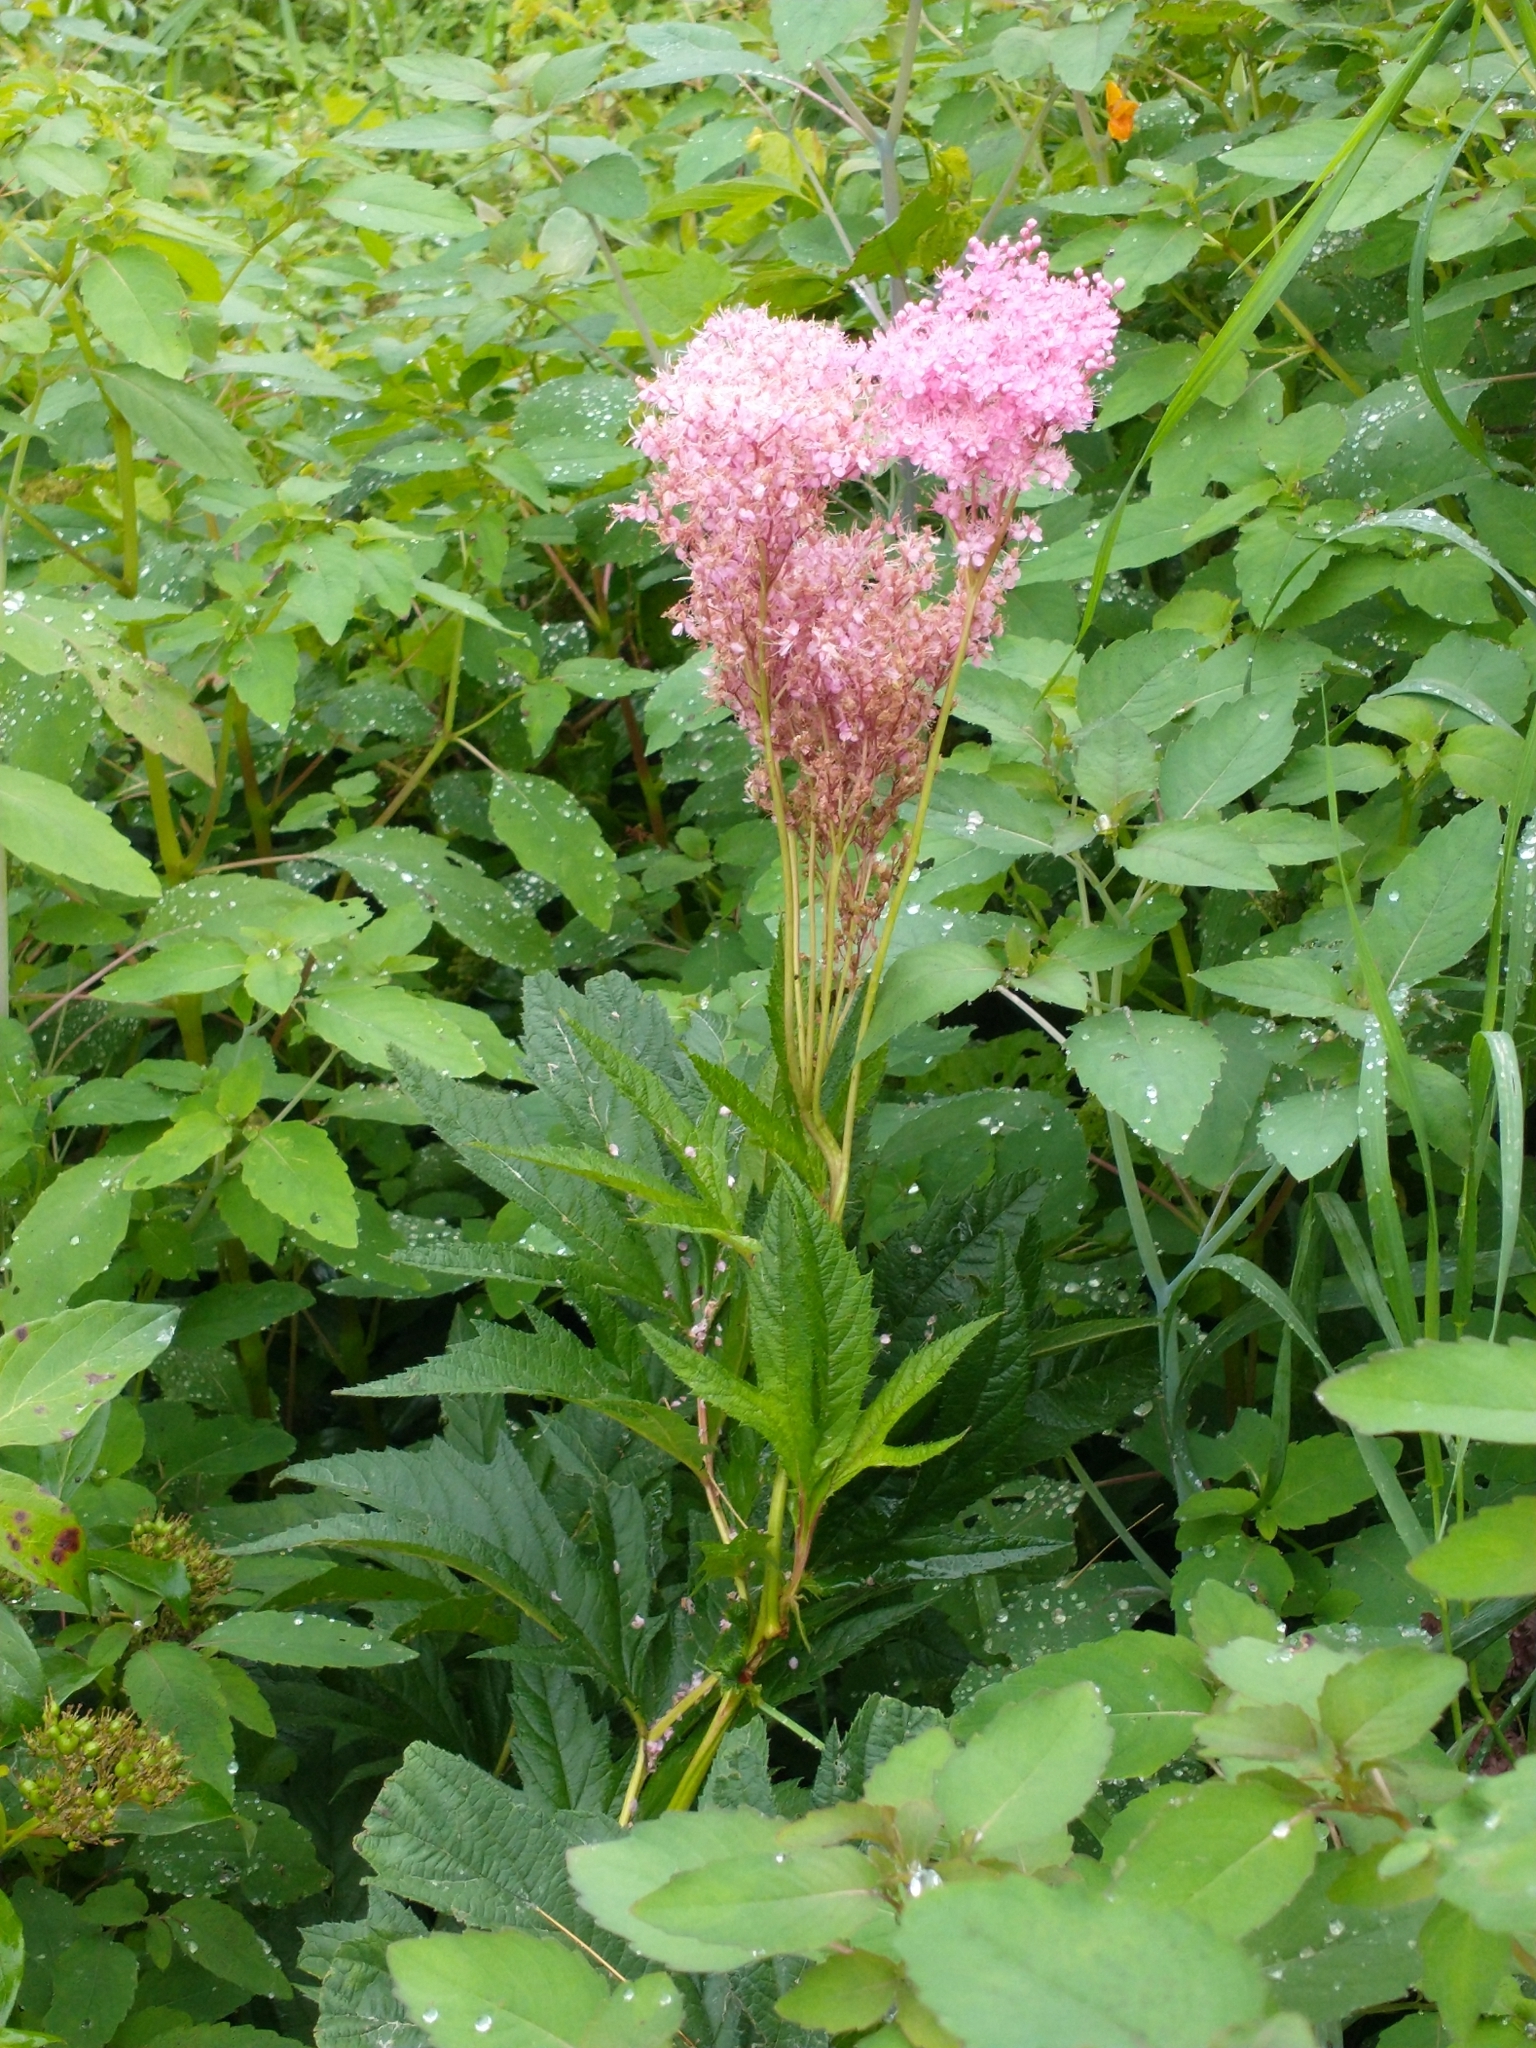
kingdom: Plantae
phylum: Tracheophyta
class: Magnoliopsida
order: Rosales
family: Rosaceae
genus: Filipendula
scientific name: Filipendula rubra
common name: Queen-of-the-prairie
